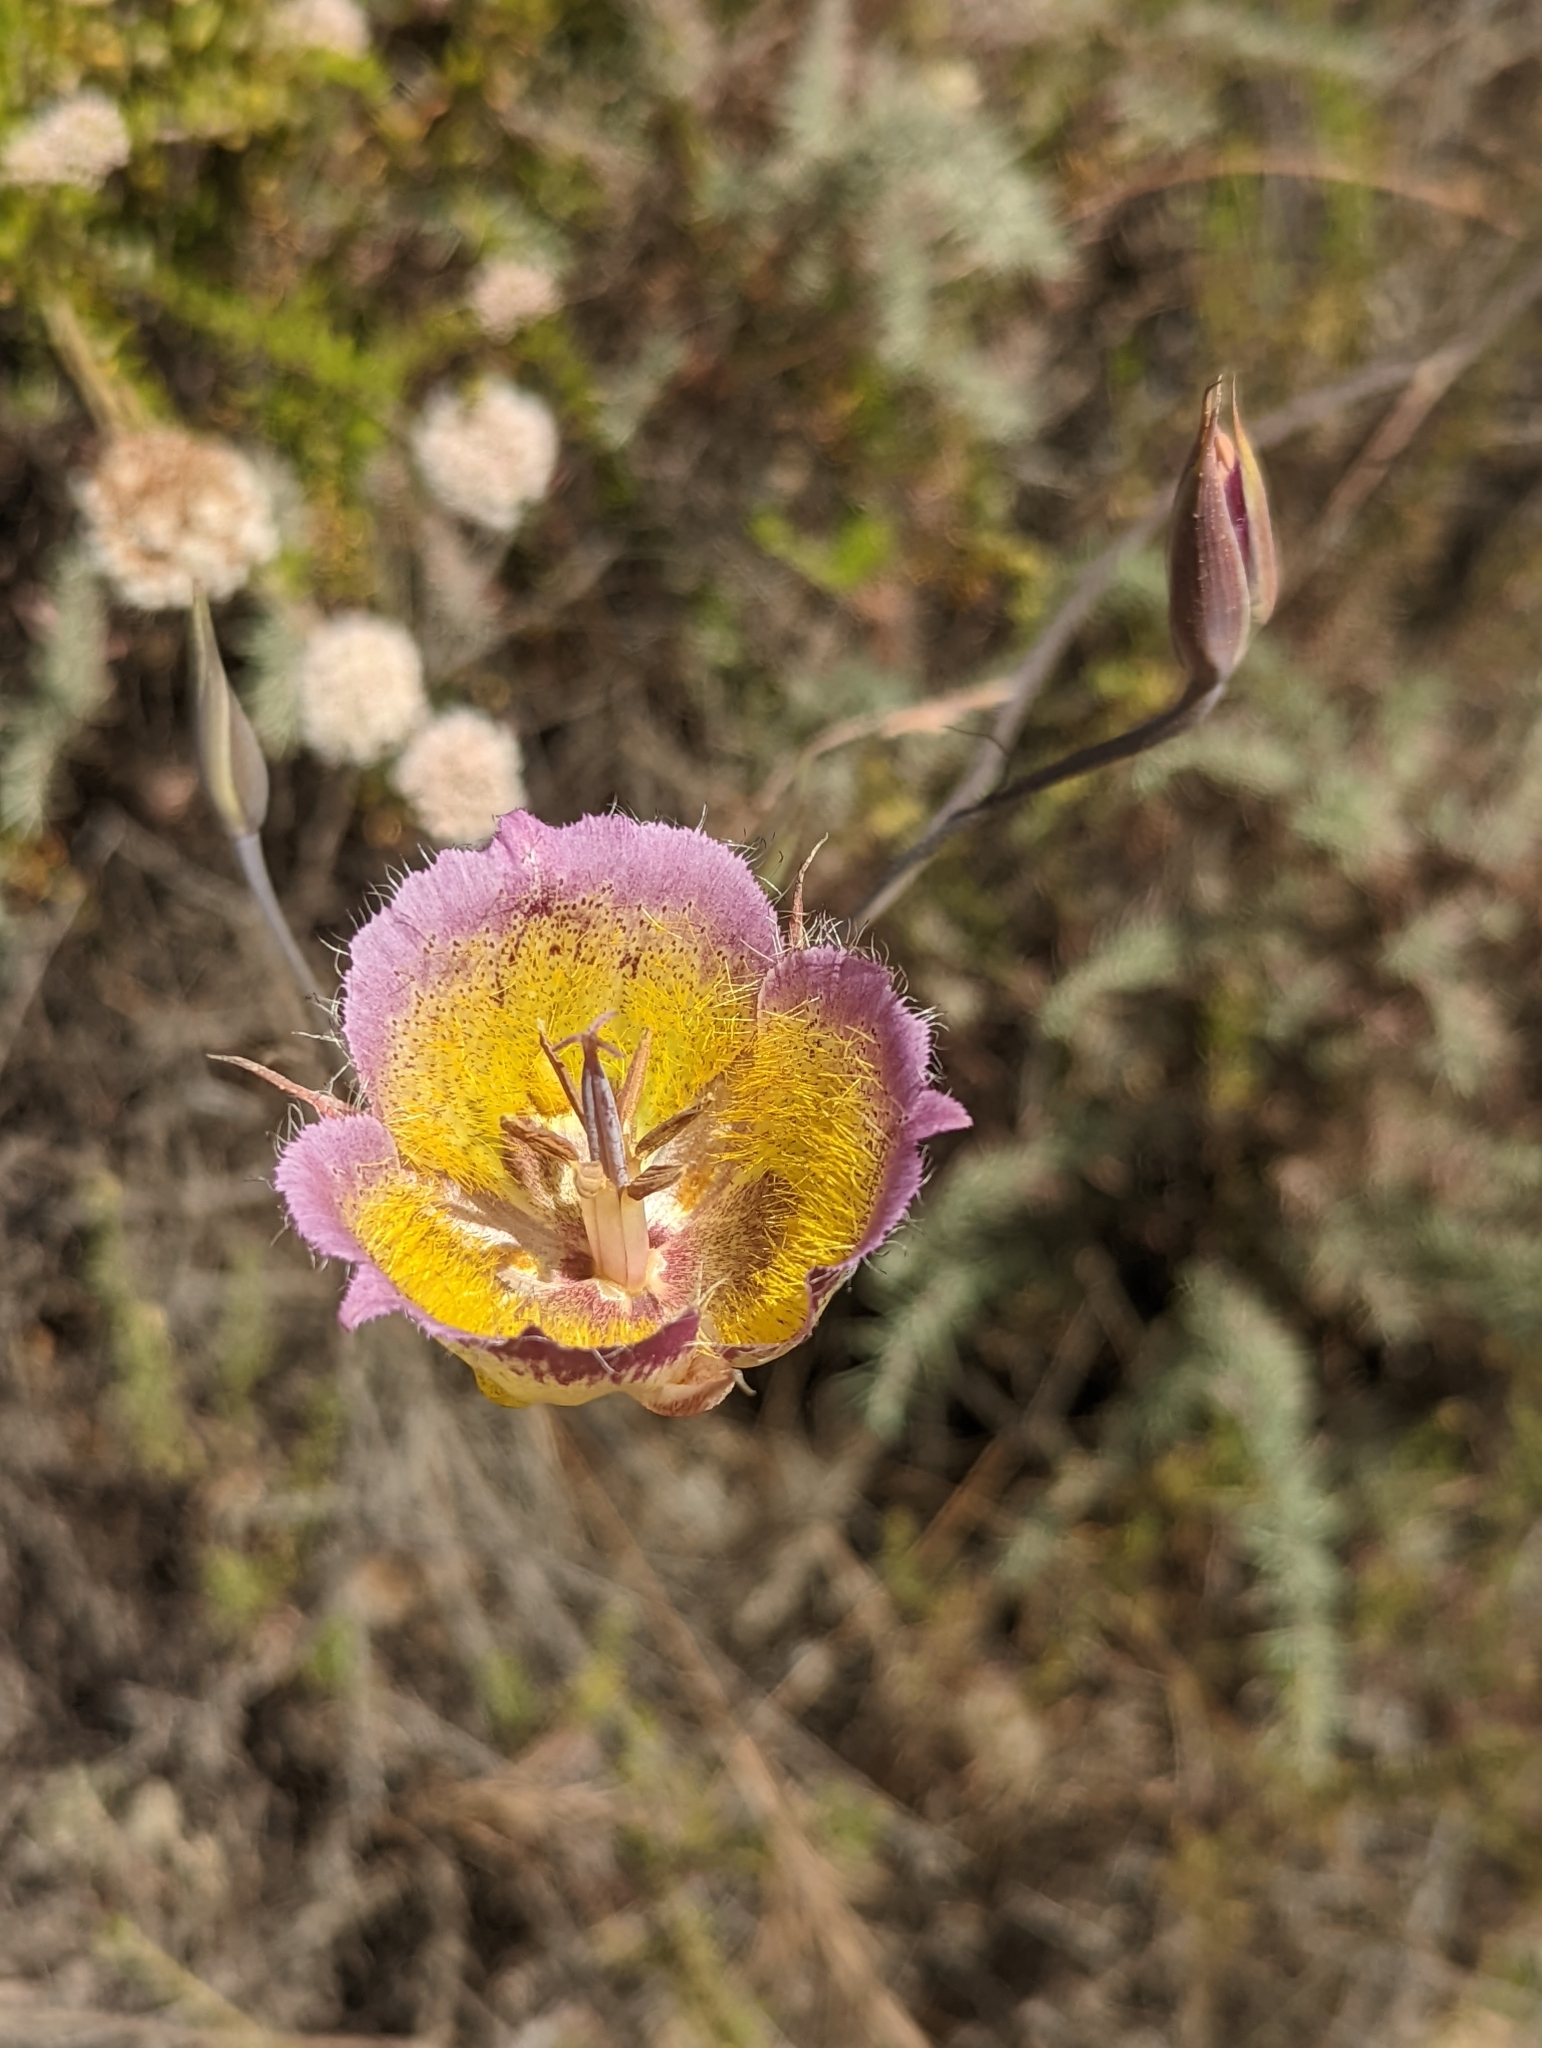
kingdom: Plantae
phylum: Tracheophyta
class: Liliopsida
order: Liliales
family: Liliaceae
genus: Calochortus
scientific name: Calochortus plummerae
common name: Plummer's mariposa-lily
